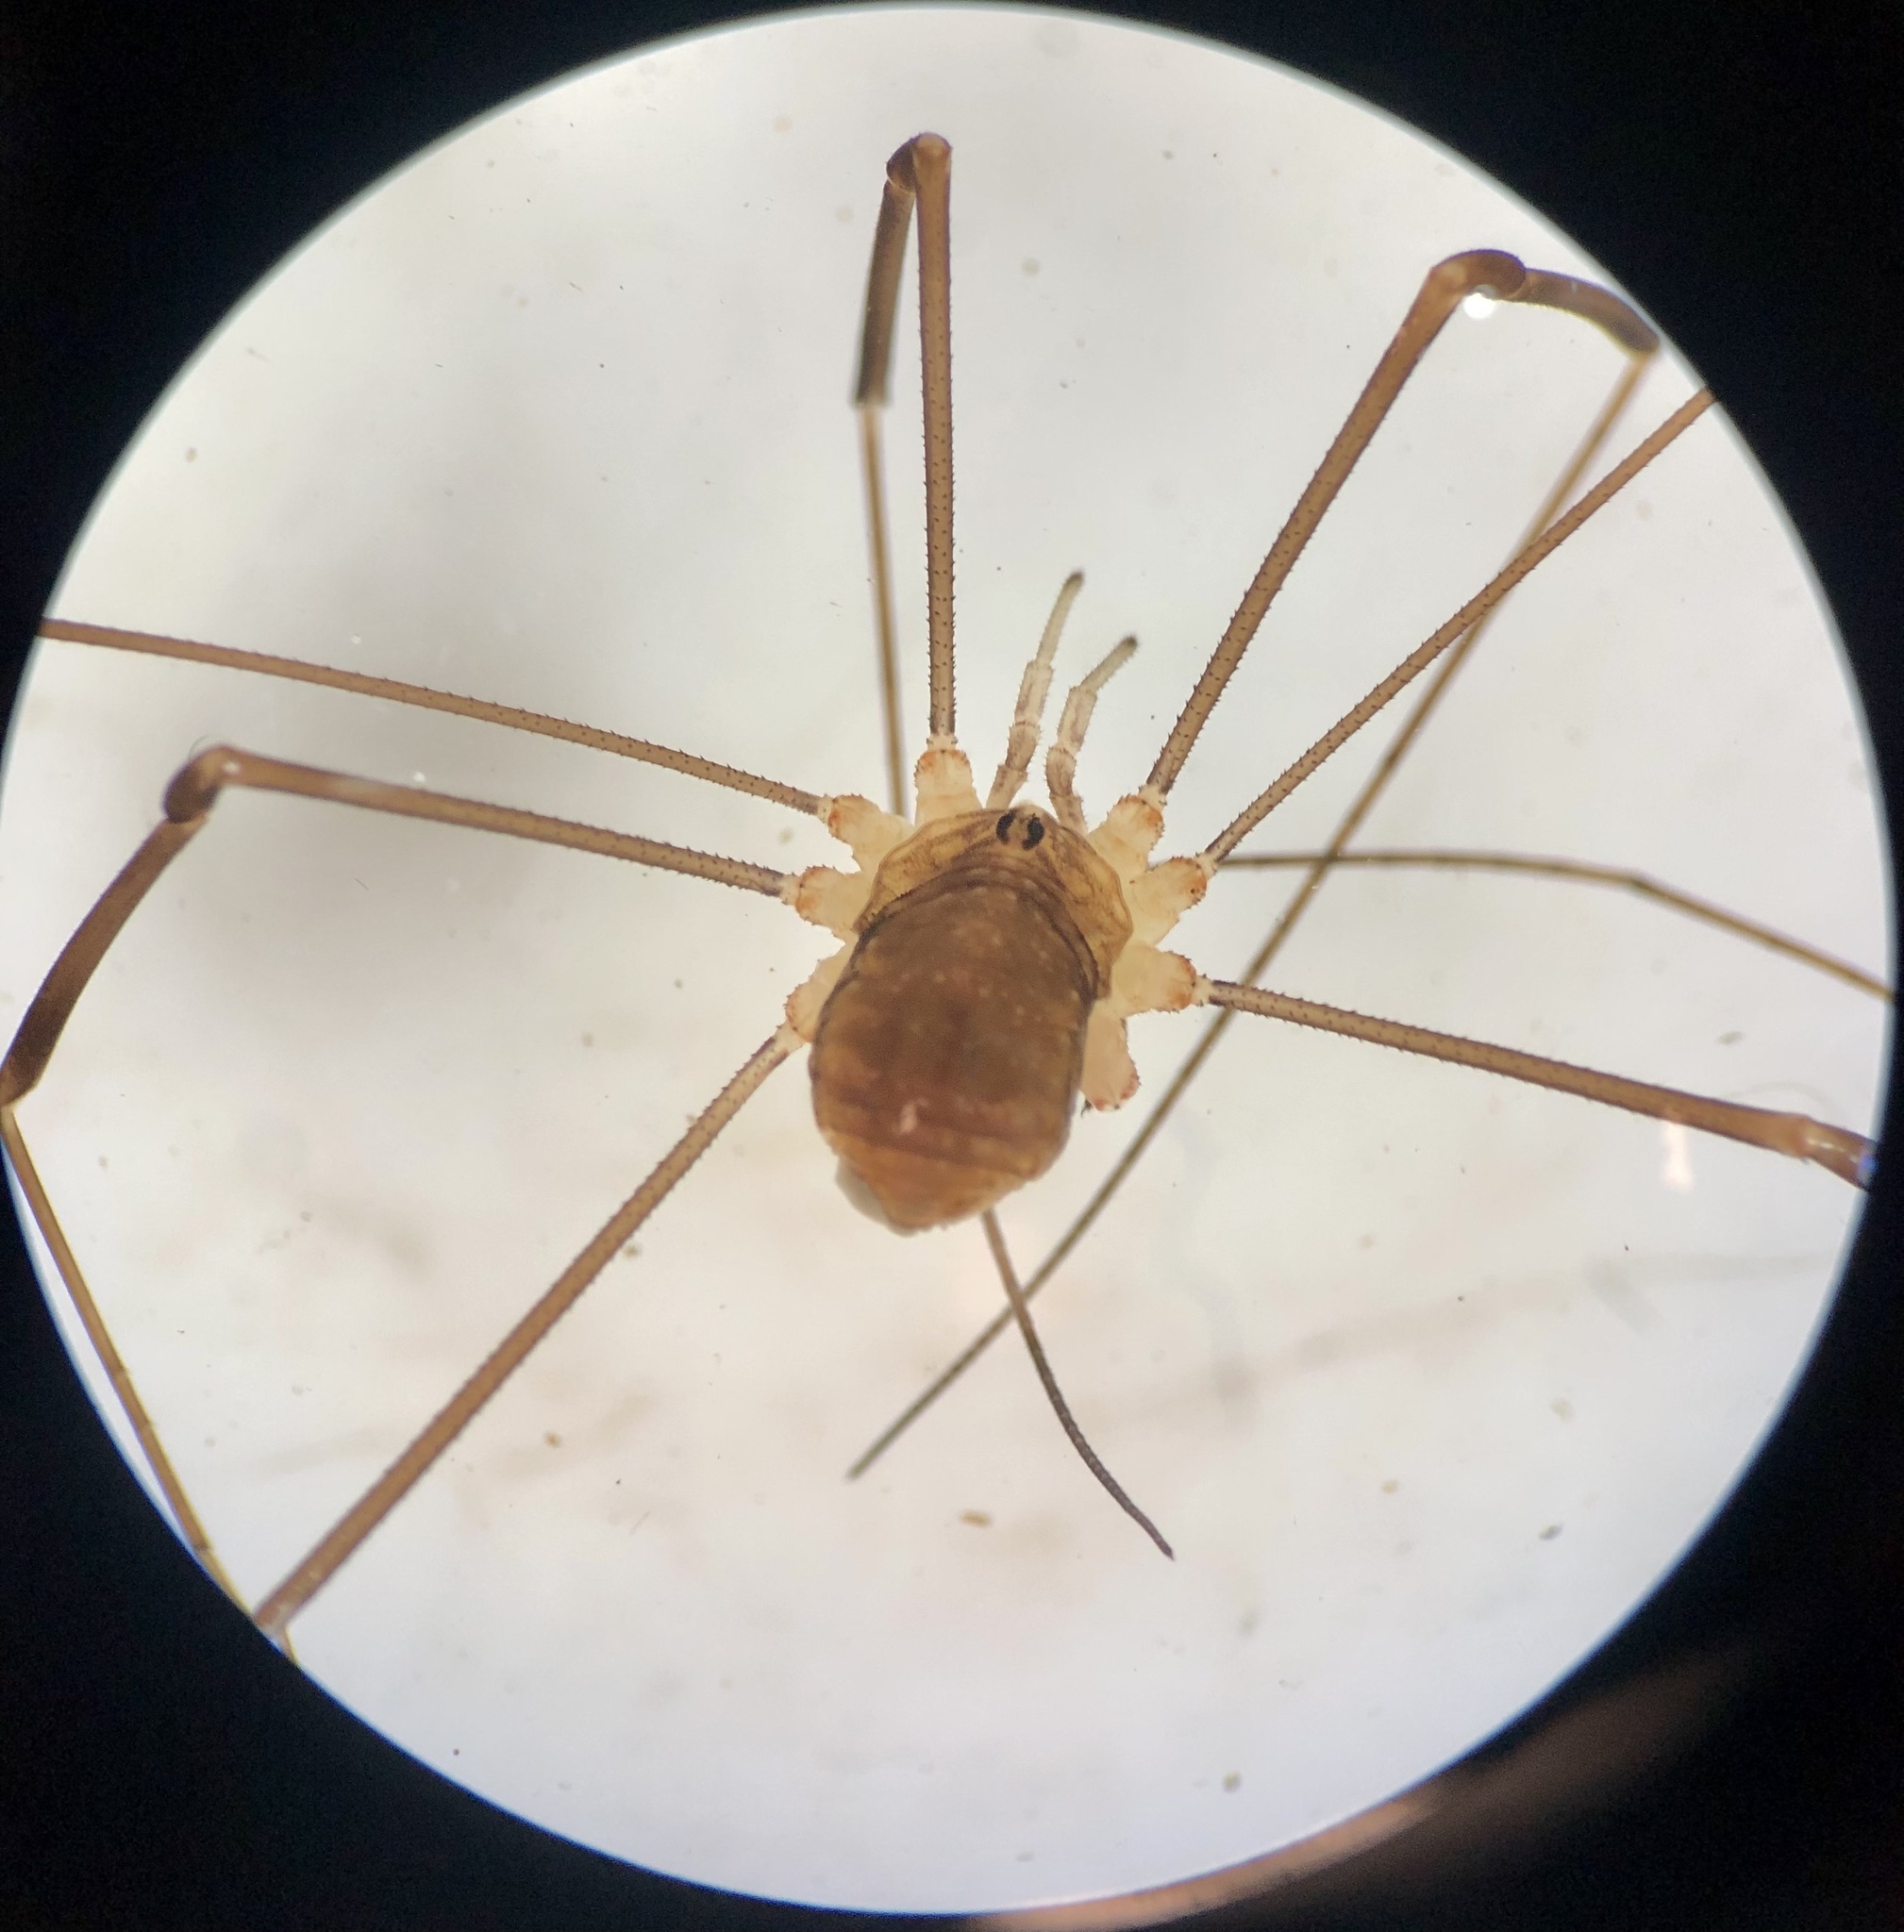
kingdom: Animalia
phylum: Arthropoda
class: Arachnida
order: Opiliones
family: Sclerosomatidae
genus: Nelima
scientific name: Nelima doriae
